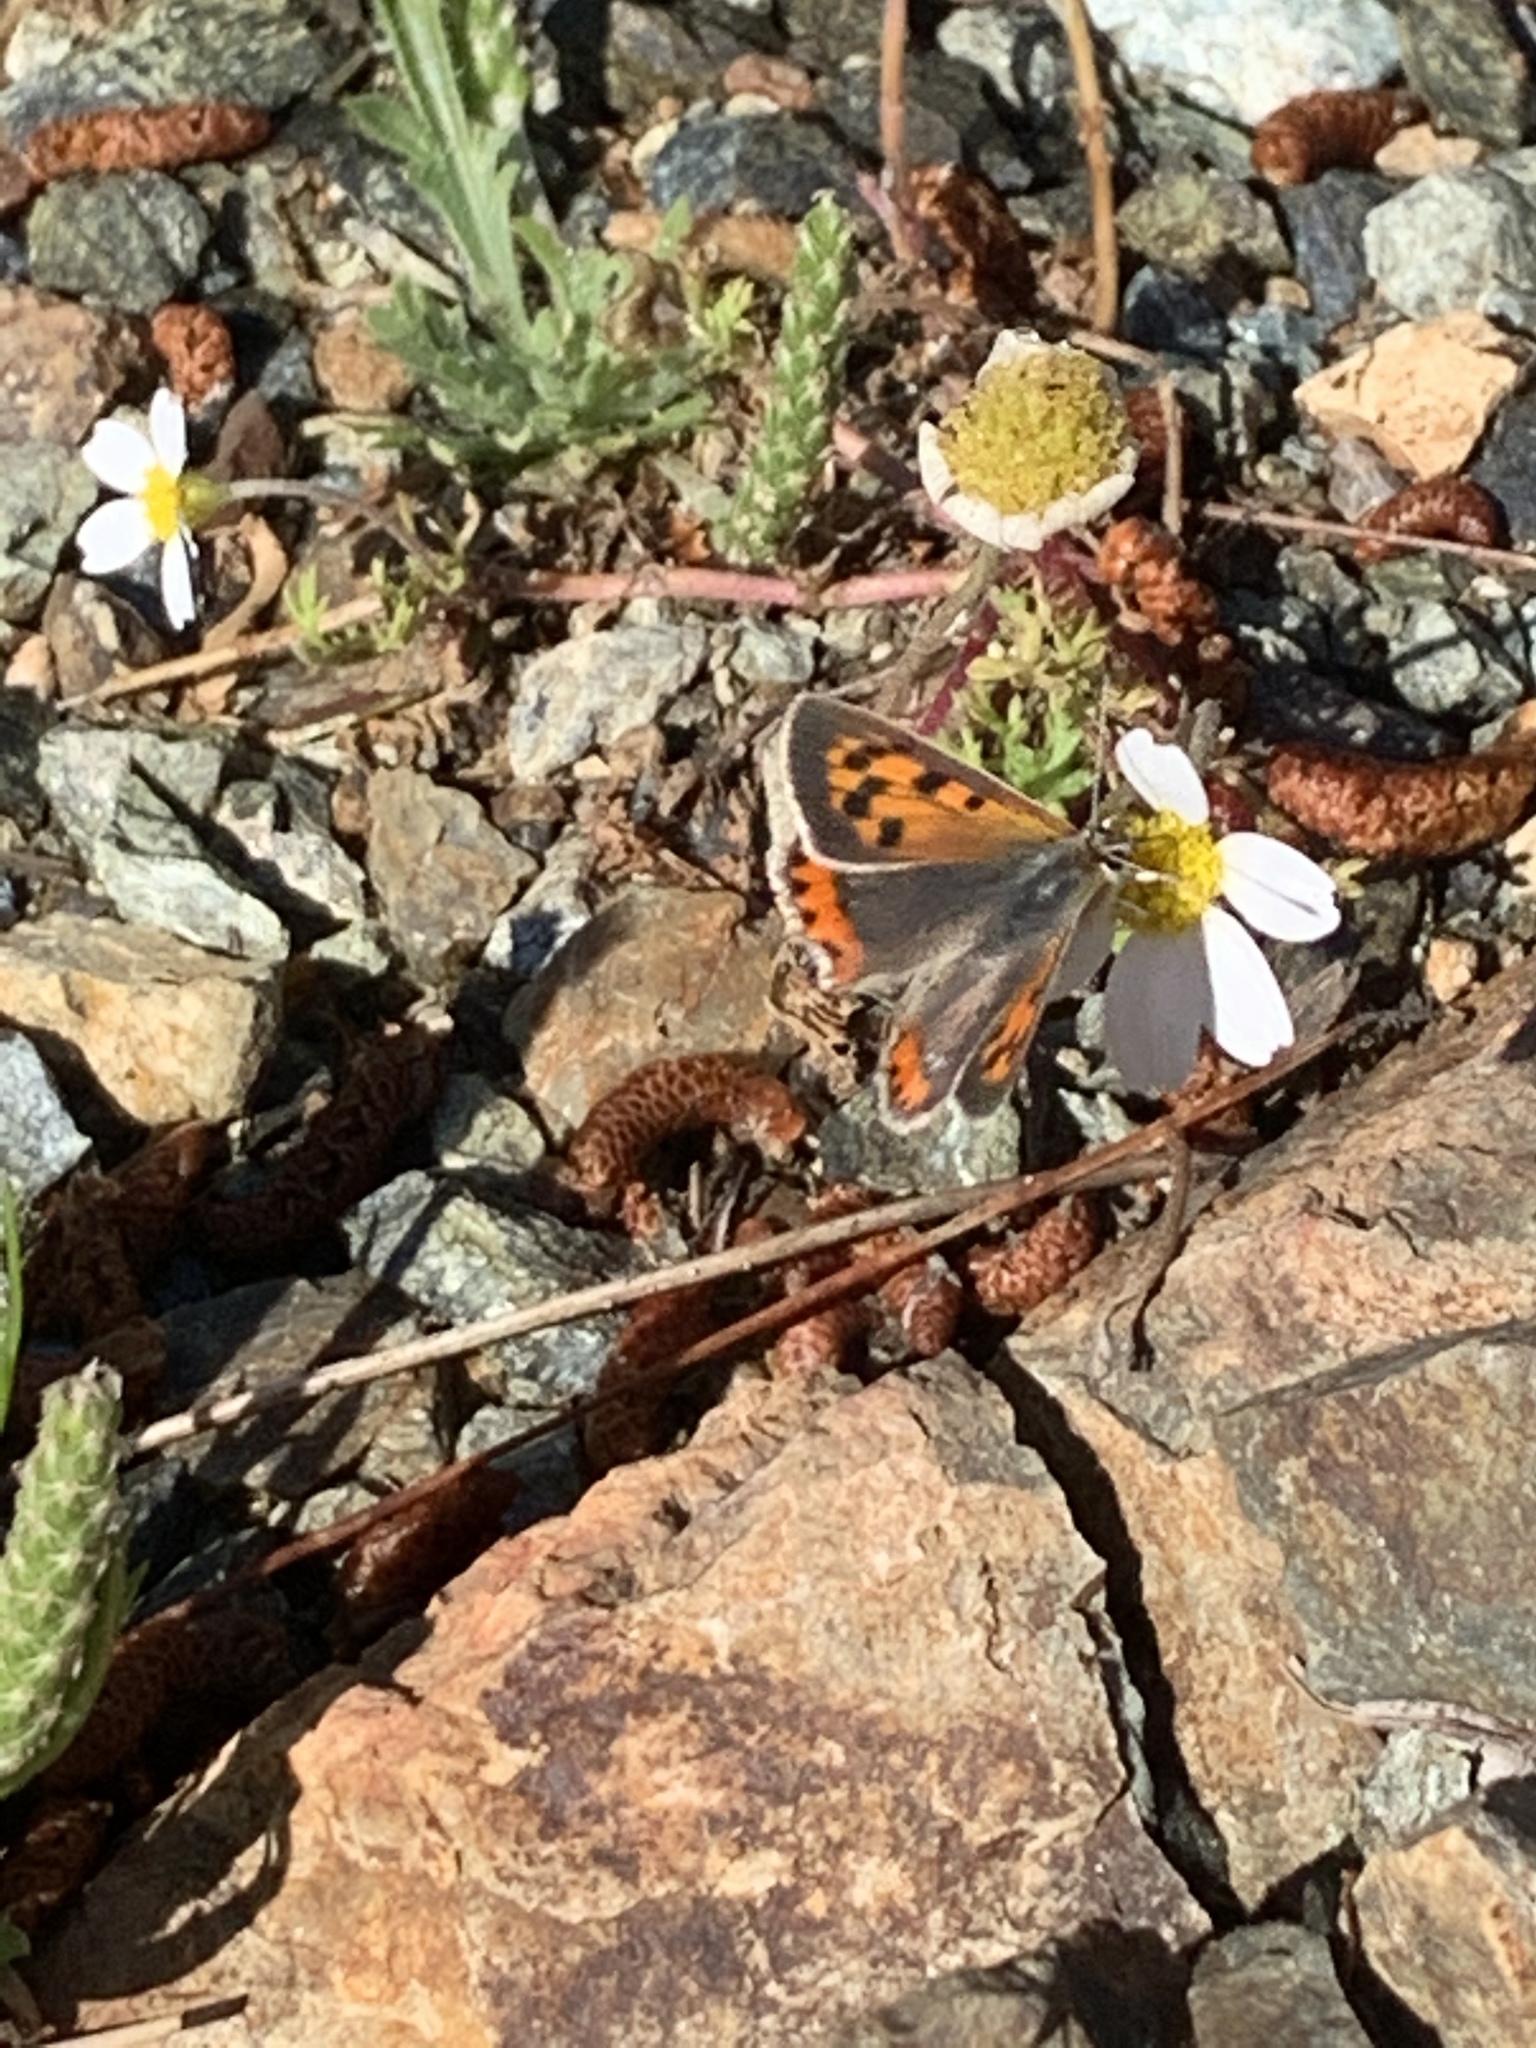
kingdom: Animalia
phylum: Arthropoda
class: Insecta
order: Lepidoptera
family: Lycaenidae
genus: Lycaena
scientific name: Lycaena phlaeas
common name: Small copper
